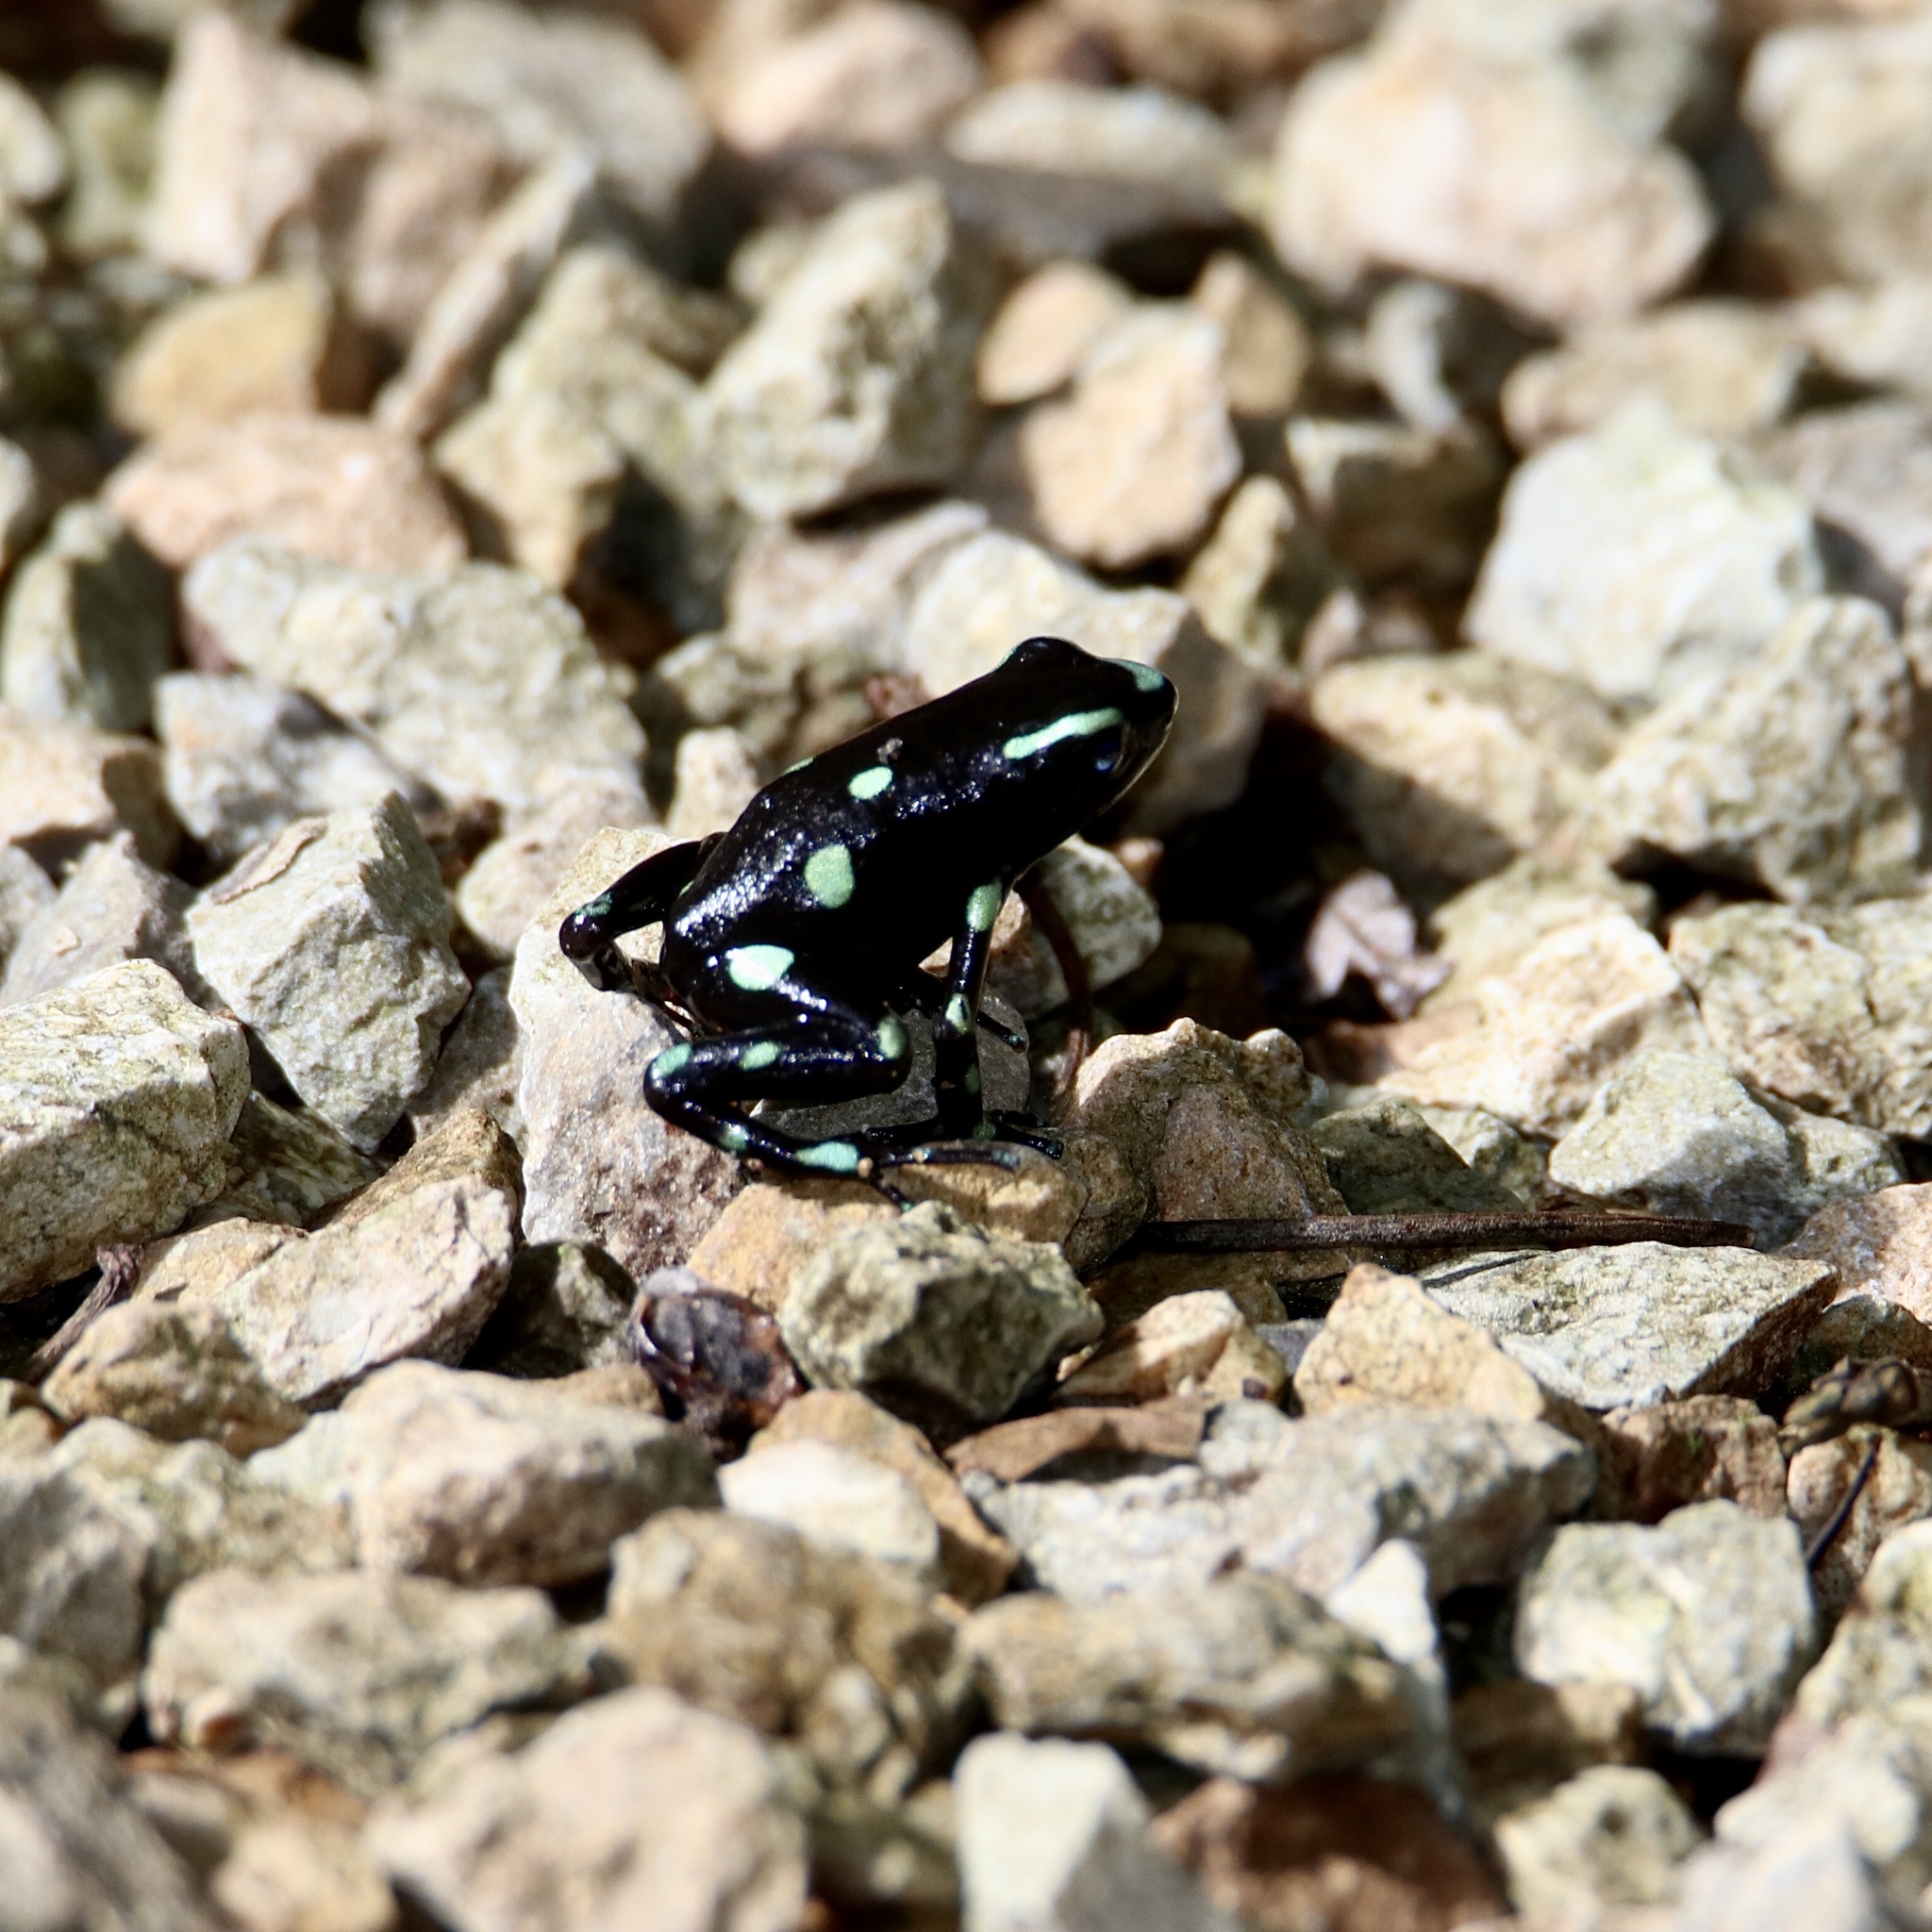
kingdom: Animalia
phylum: Chordata
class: Amphibia
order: Anura
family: Dendrobatidae
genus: Dendrobates
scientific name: Dendrobates auratus
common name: Green and black poison dart frog
